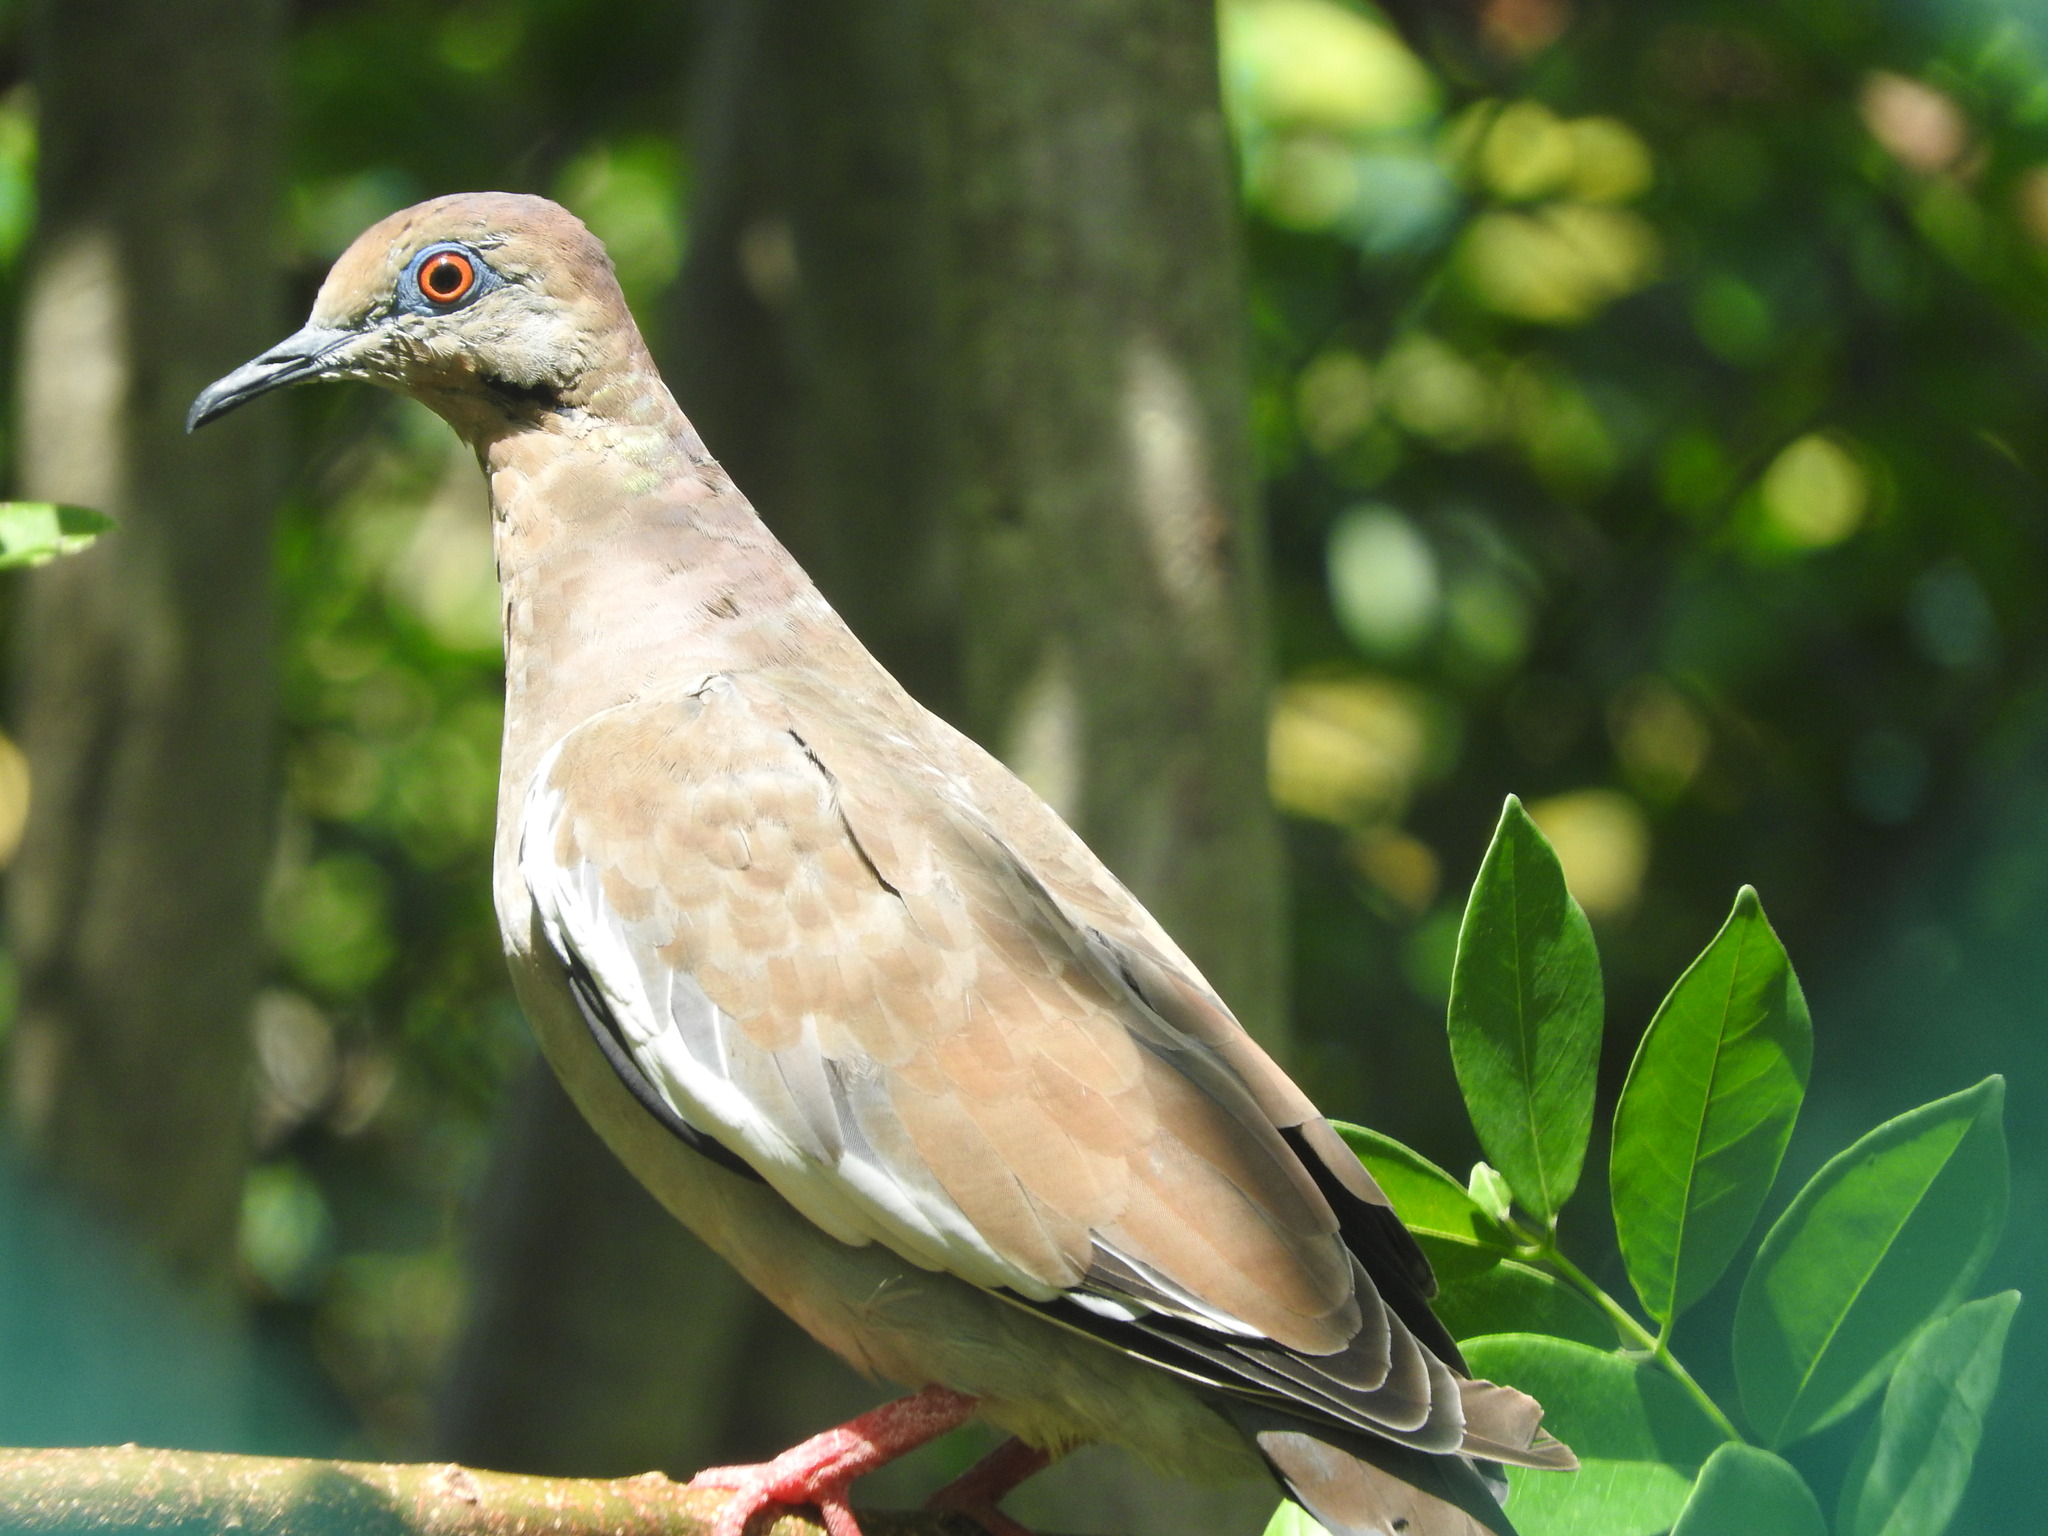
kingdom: Animalia
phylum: Chordata
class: Aves
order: Columbiformes
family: Columbidae
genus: Zenaida
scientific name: Zenaida asiatica
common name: White-winged dove
